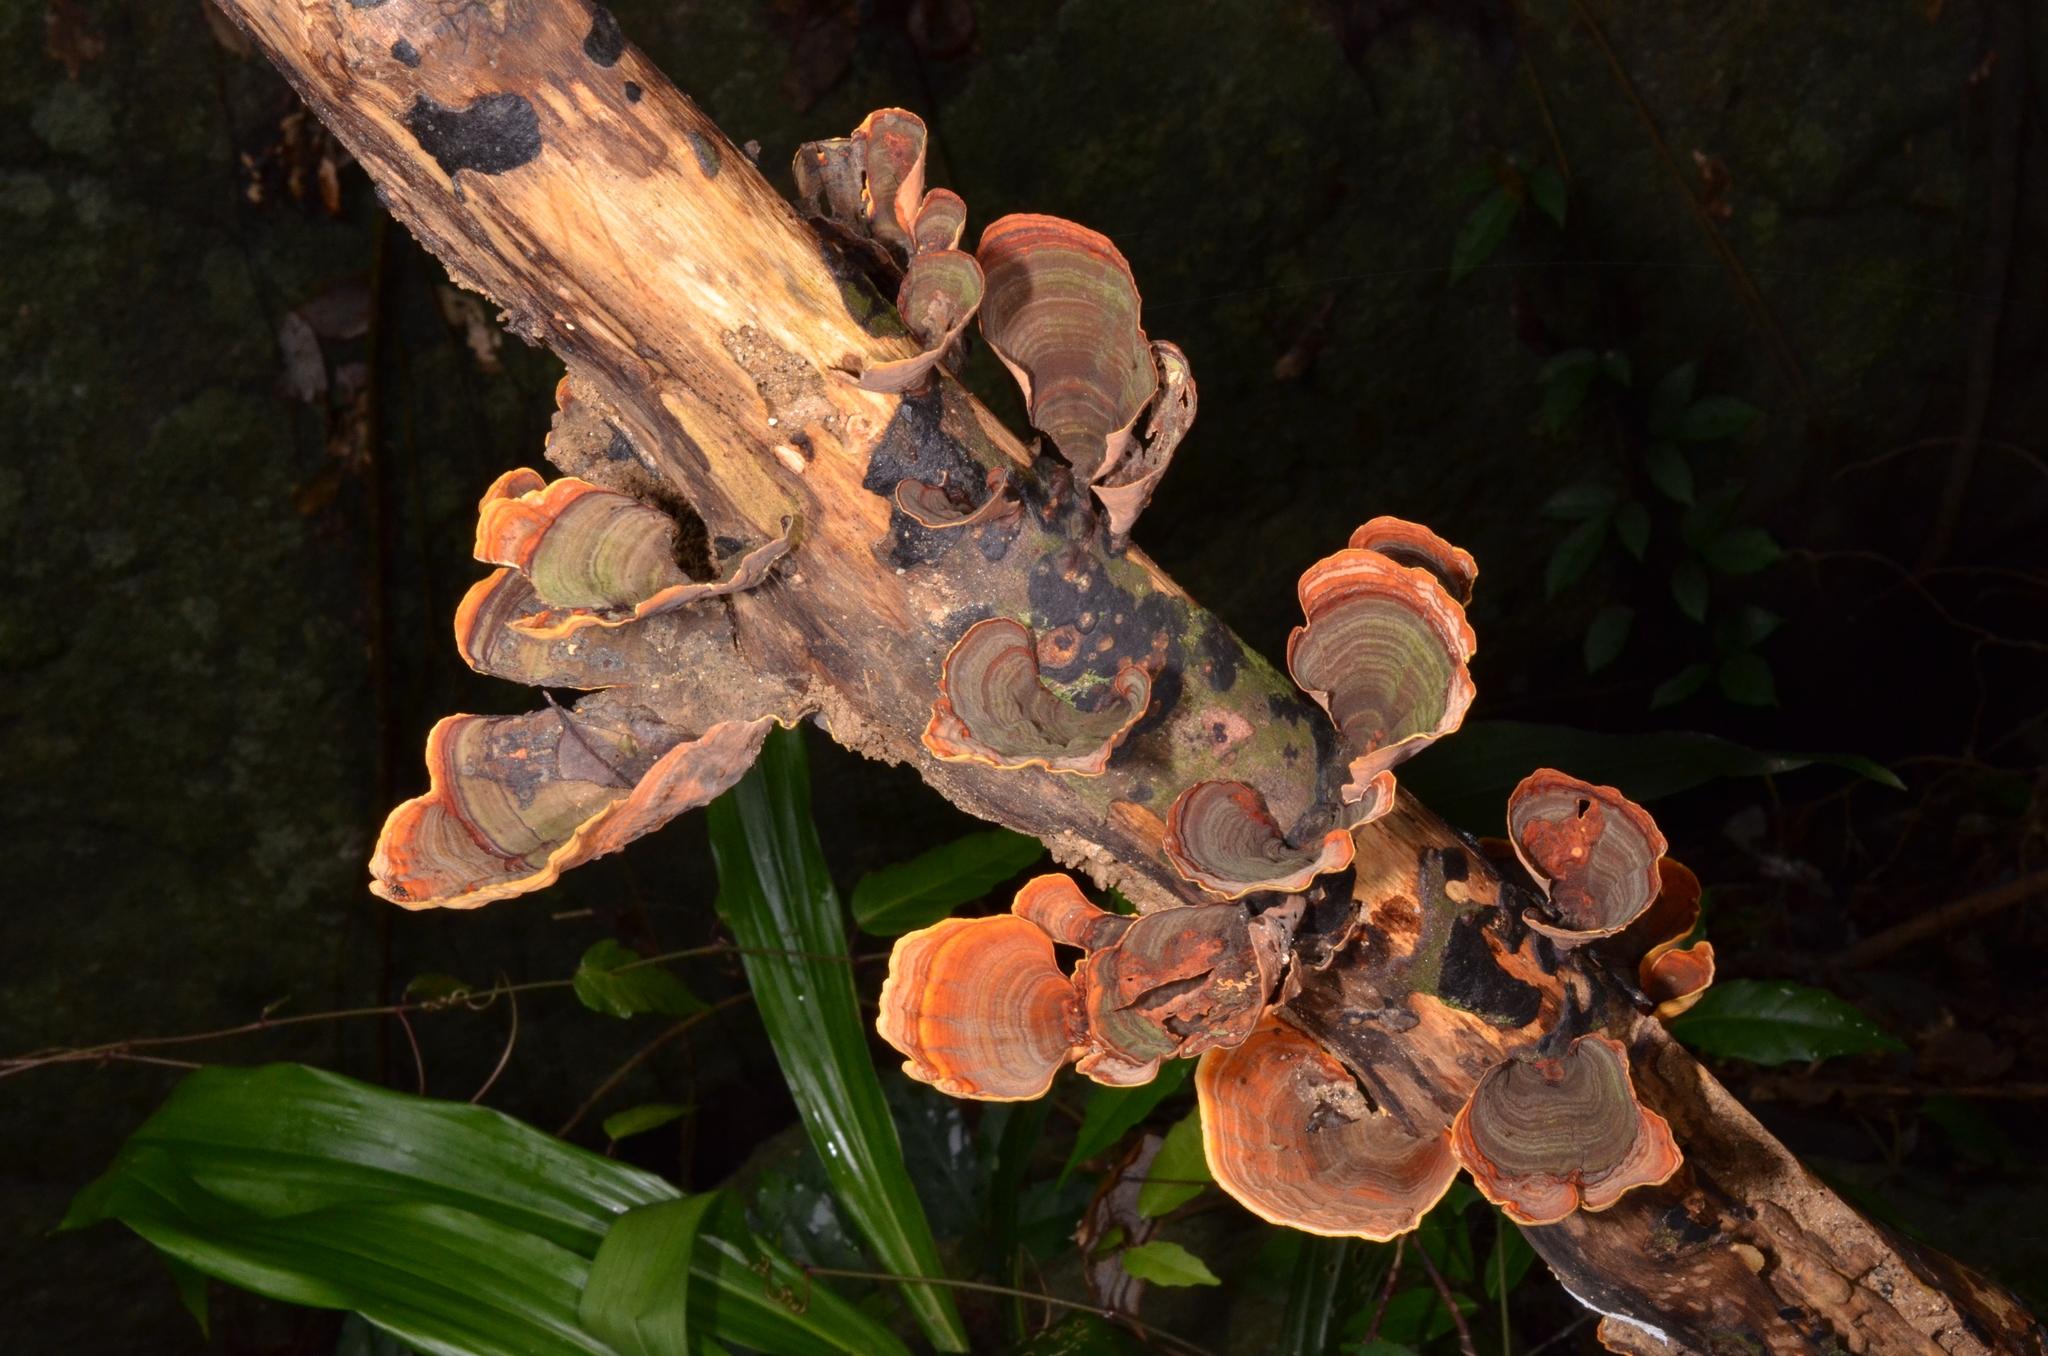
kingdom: Fungi
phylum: Basidiomycota
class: Agaricomycetes
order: Russulales
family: Stereaceae
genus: Stereum
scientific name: Stereum ostrea
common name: False turkeytail
